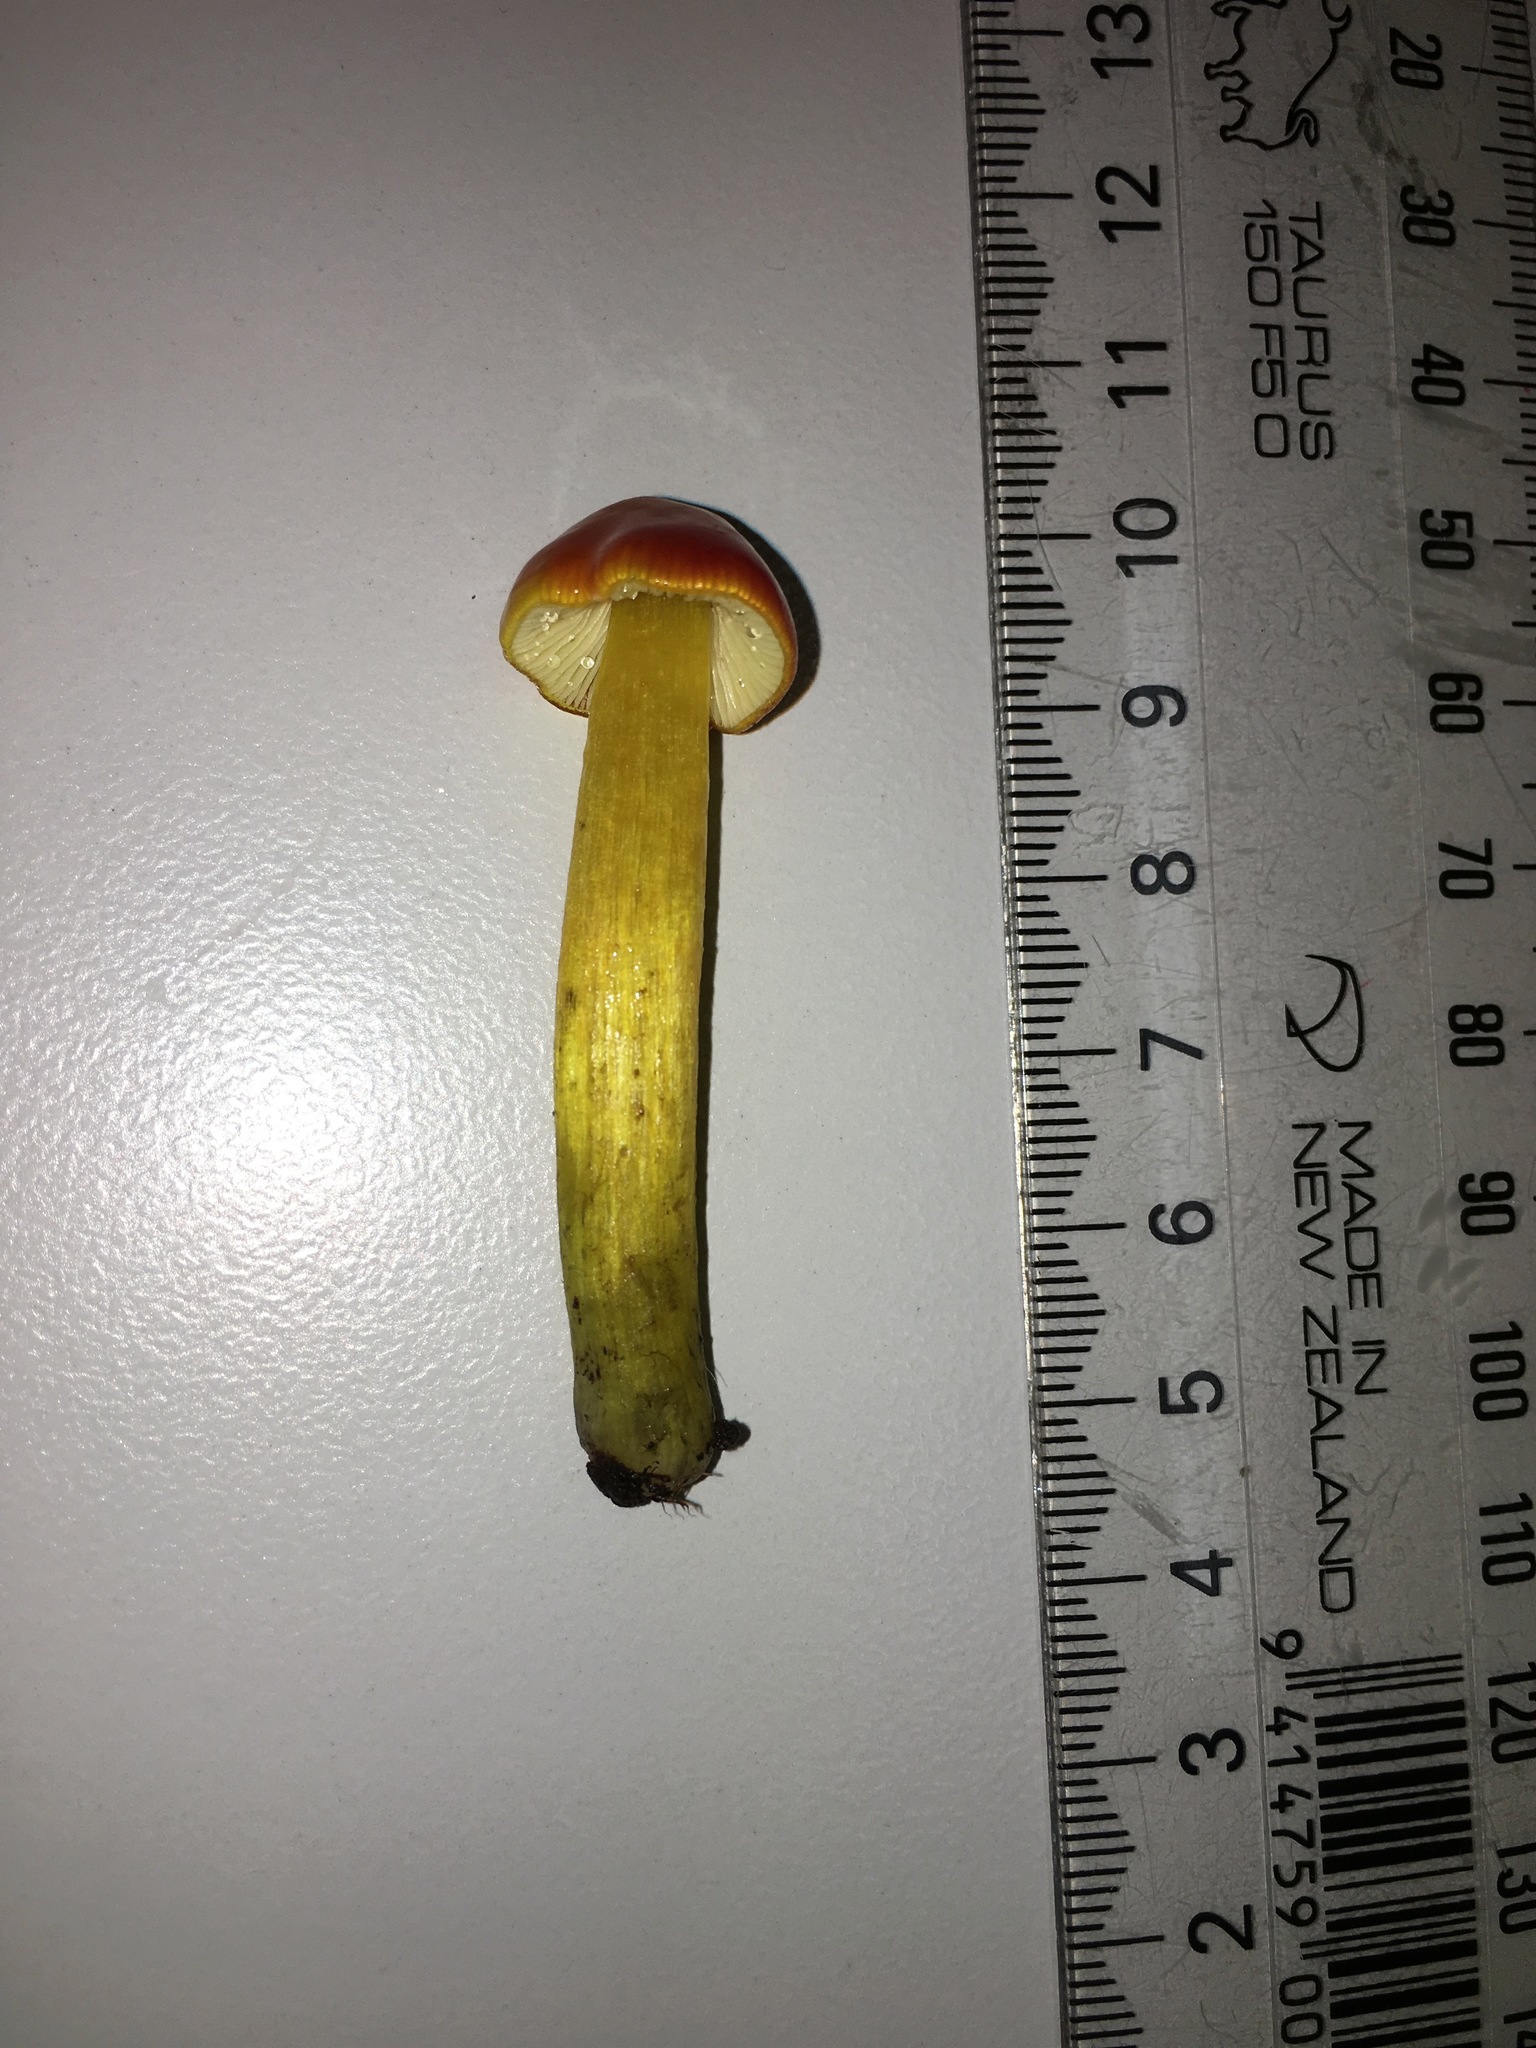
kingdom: Fungi
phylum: Basidiomycota
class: Agaricomycetes
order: Agaricales
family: Hygrophoraceae
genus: Hygrocybe
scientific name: Hygrocybe conica
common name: Blackening wax-cap
